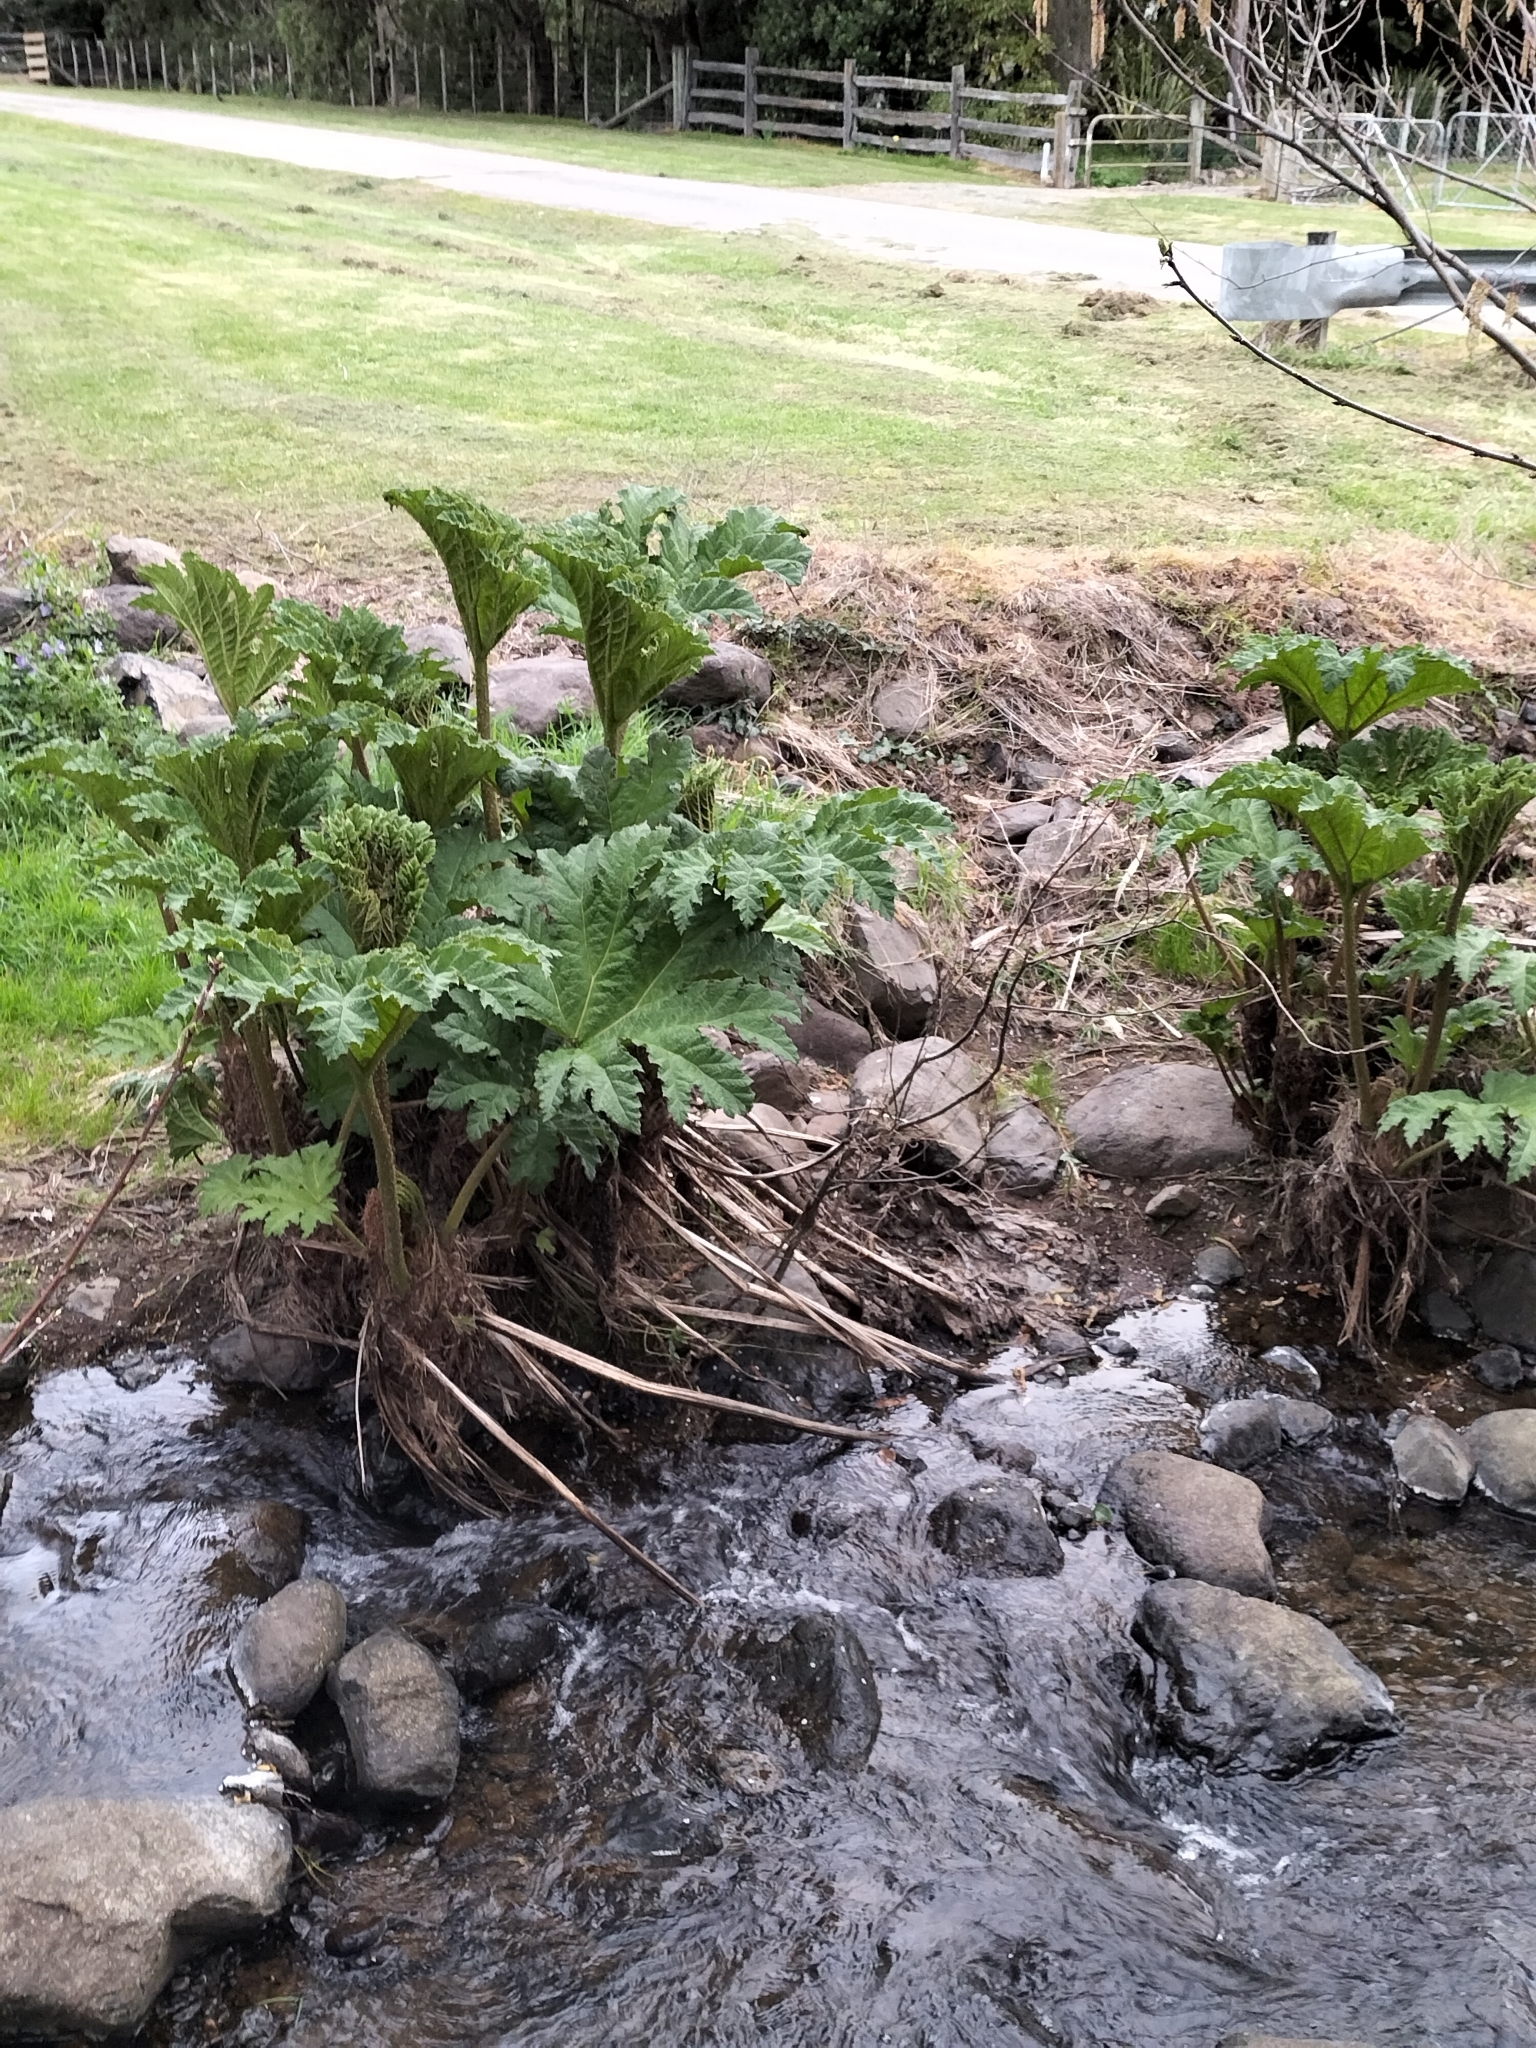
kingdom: Plantae
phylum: Tracheophyta
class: Magnoliopsida
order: Gunnerales
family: Gunneraceae
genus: Gunnera
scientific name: Gunnera tinctoria
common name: Giant-rhubarb
